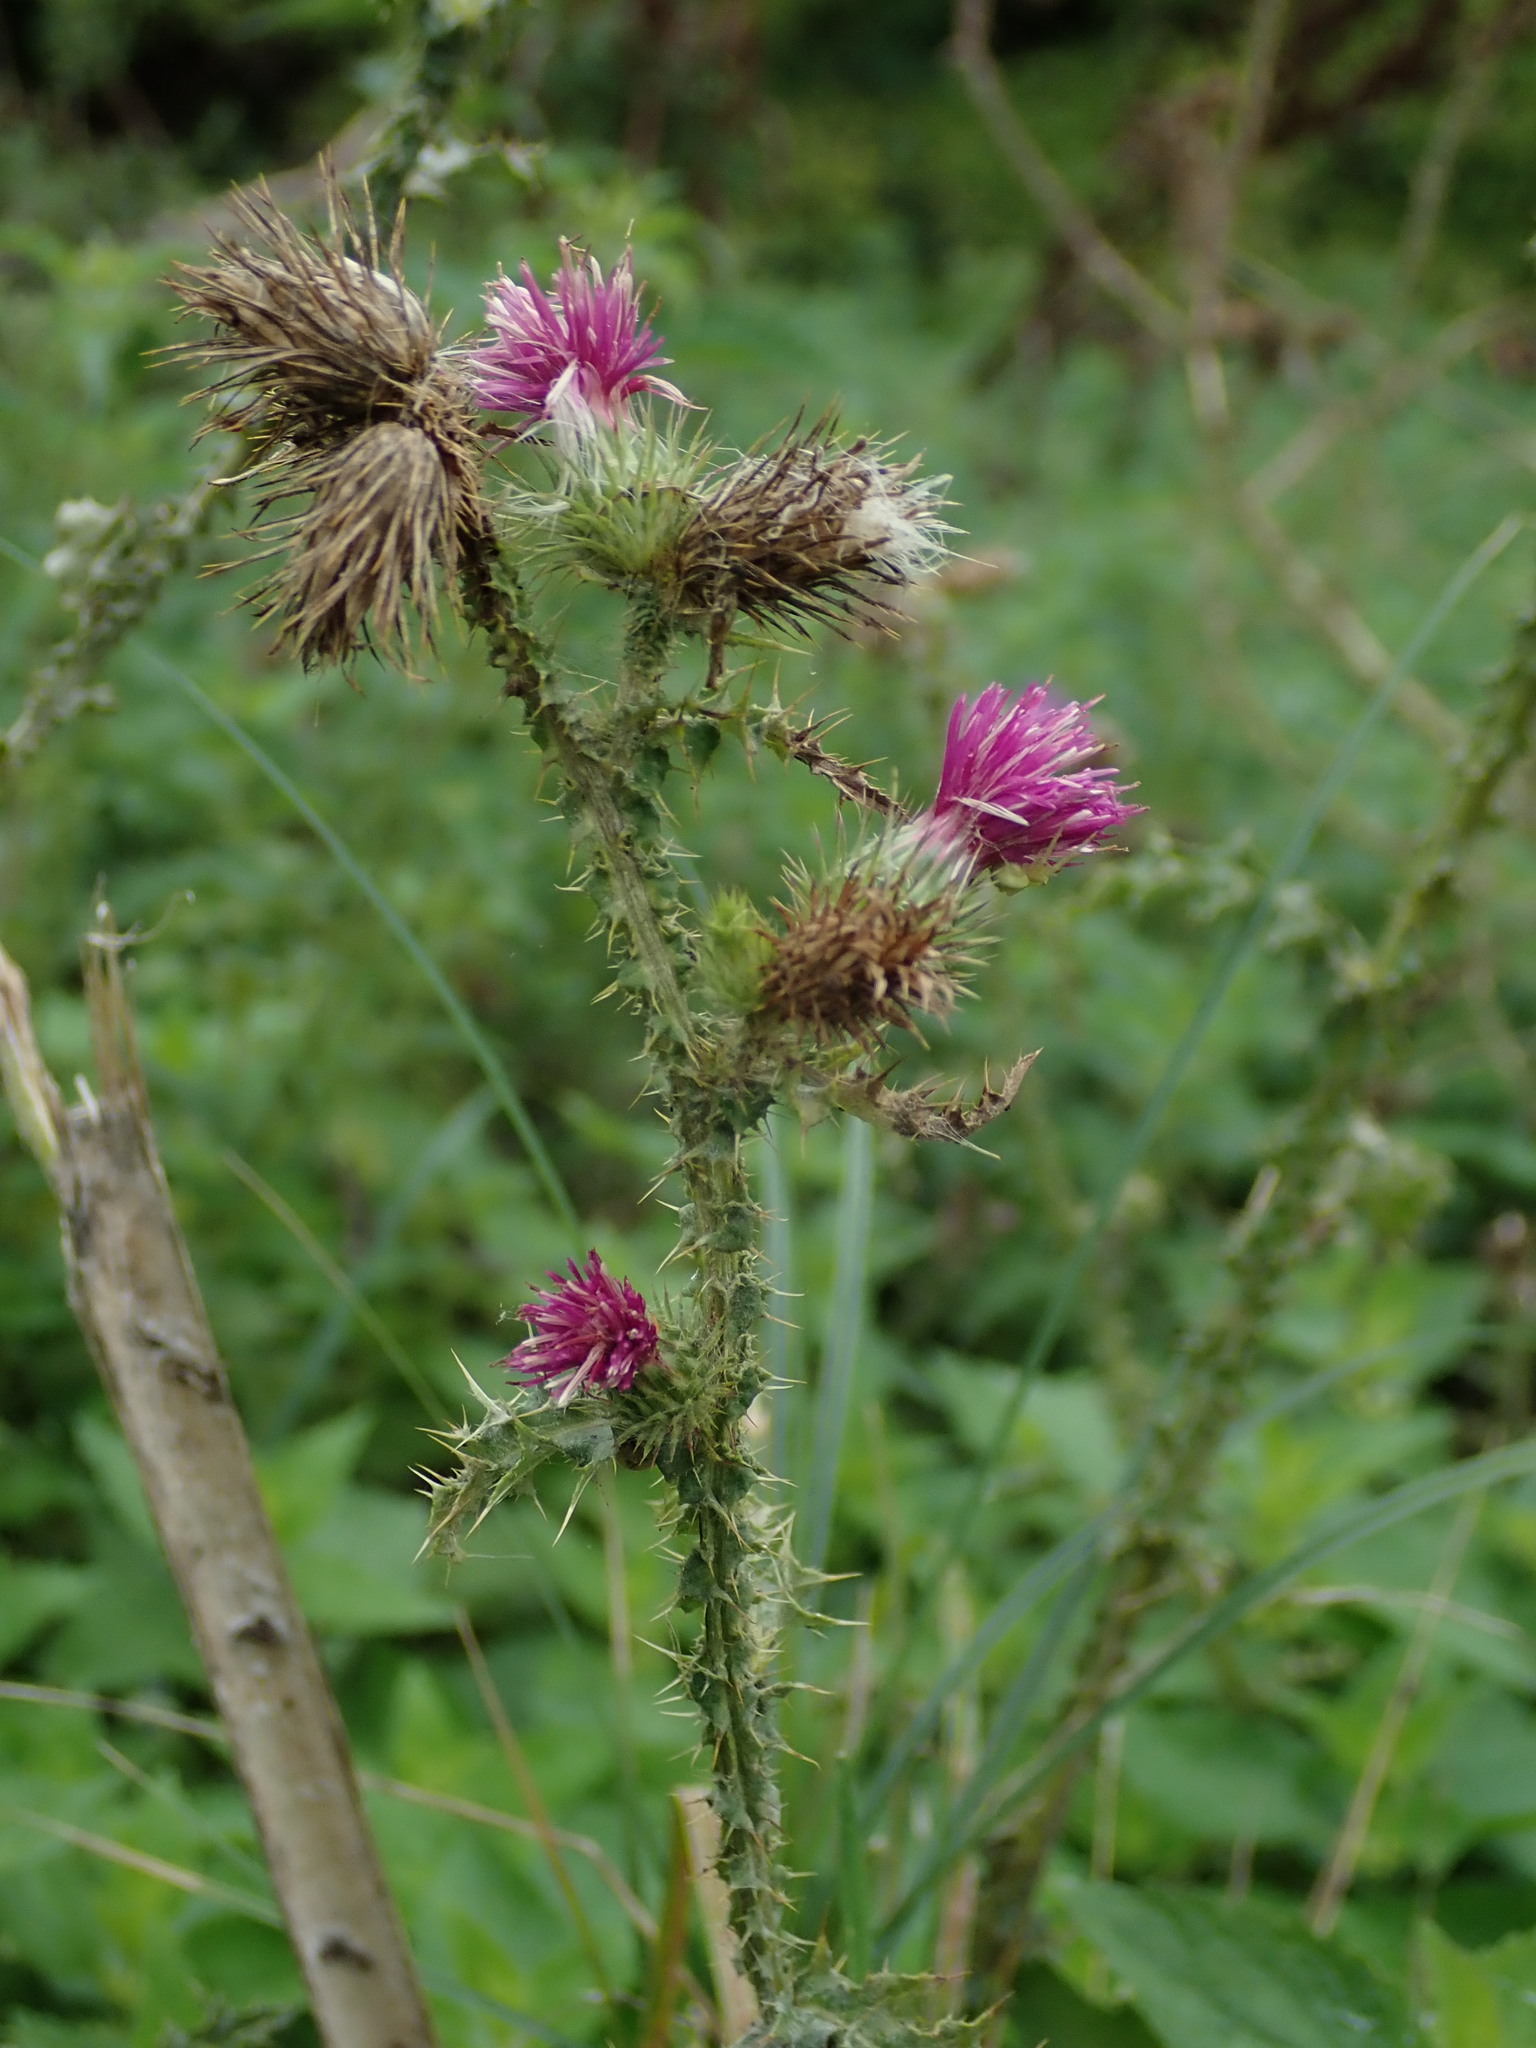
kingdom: Plantae
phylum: Tracheophyta
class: Magnoliopsida
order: Asterales
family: Asteraceae
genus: Carduus
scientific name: Carduus crispus
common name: Welted thistle
